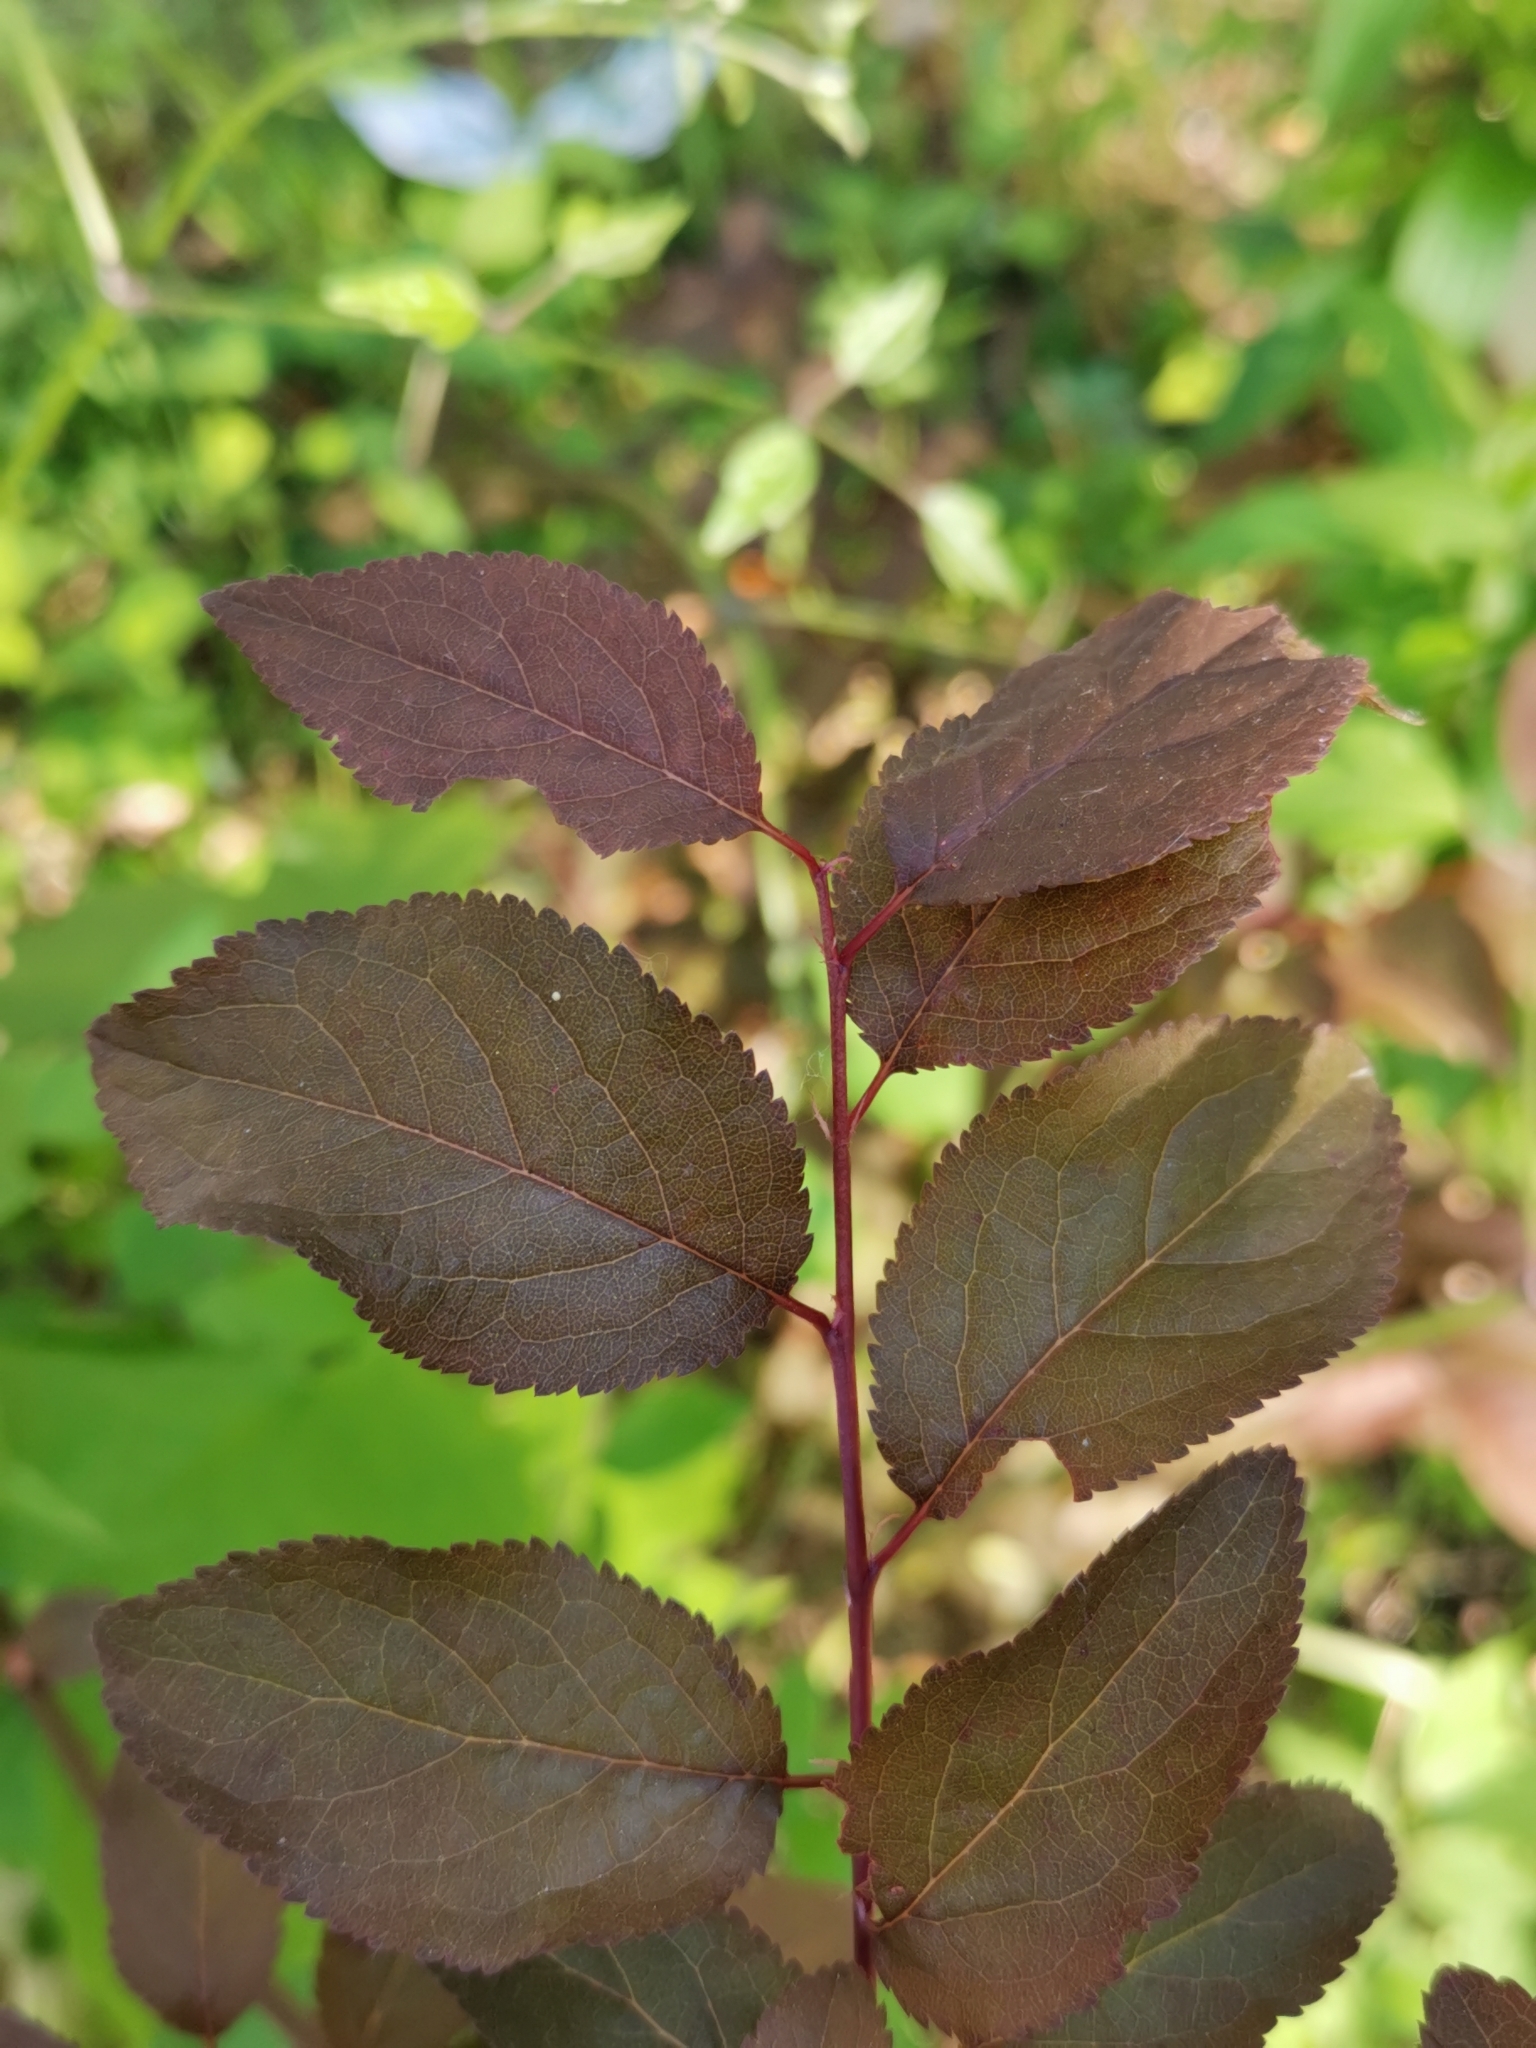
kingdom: Plantae
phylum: Tracheophyta
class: Magnoliopsida
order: Rosales
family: Rosaceae
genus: Prunus
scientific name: Prunus cerasifera
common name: Cherry plum
